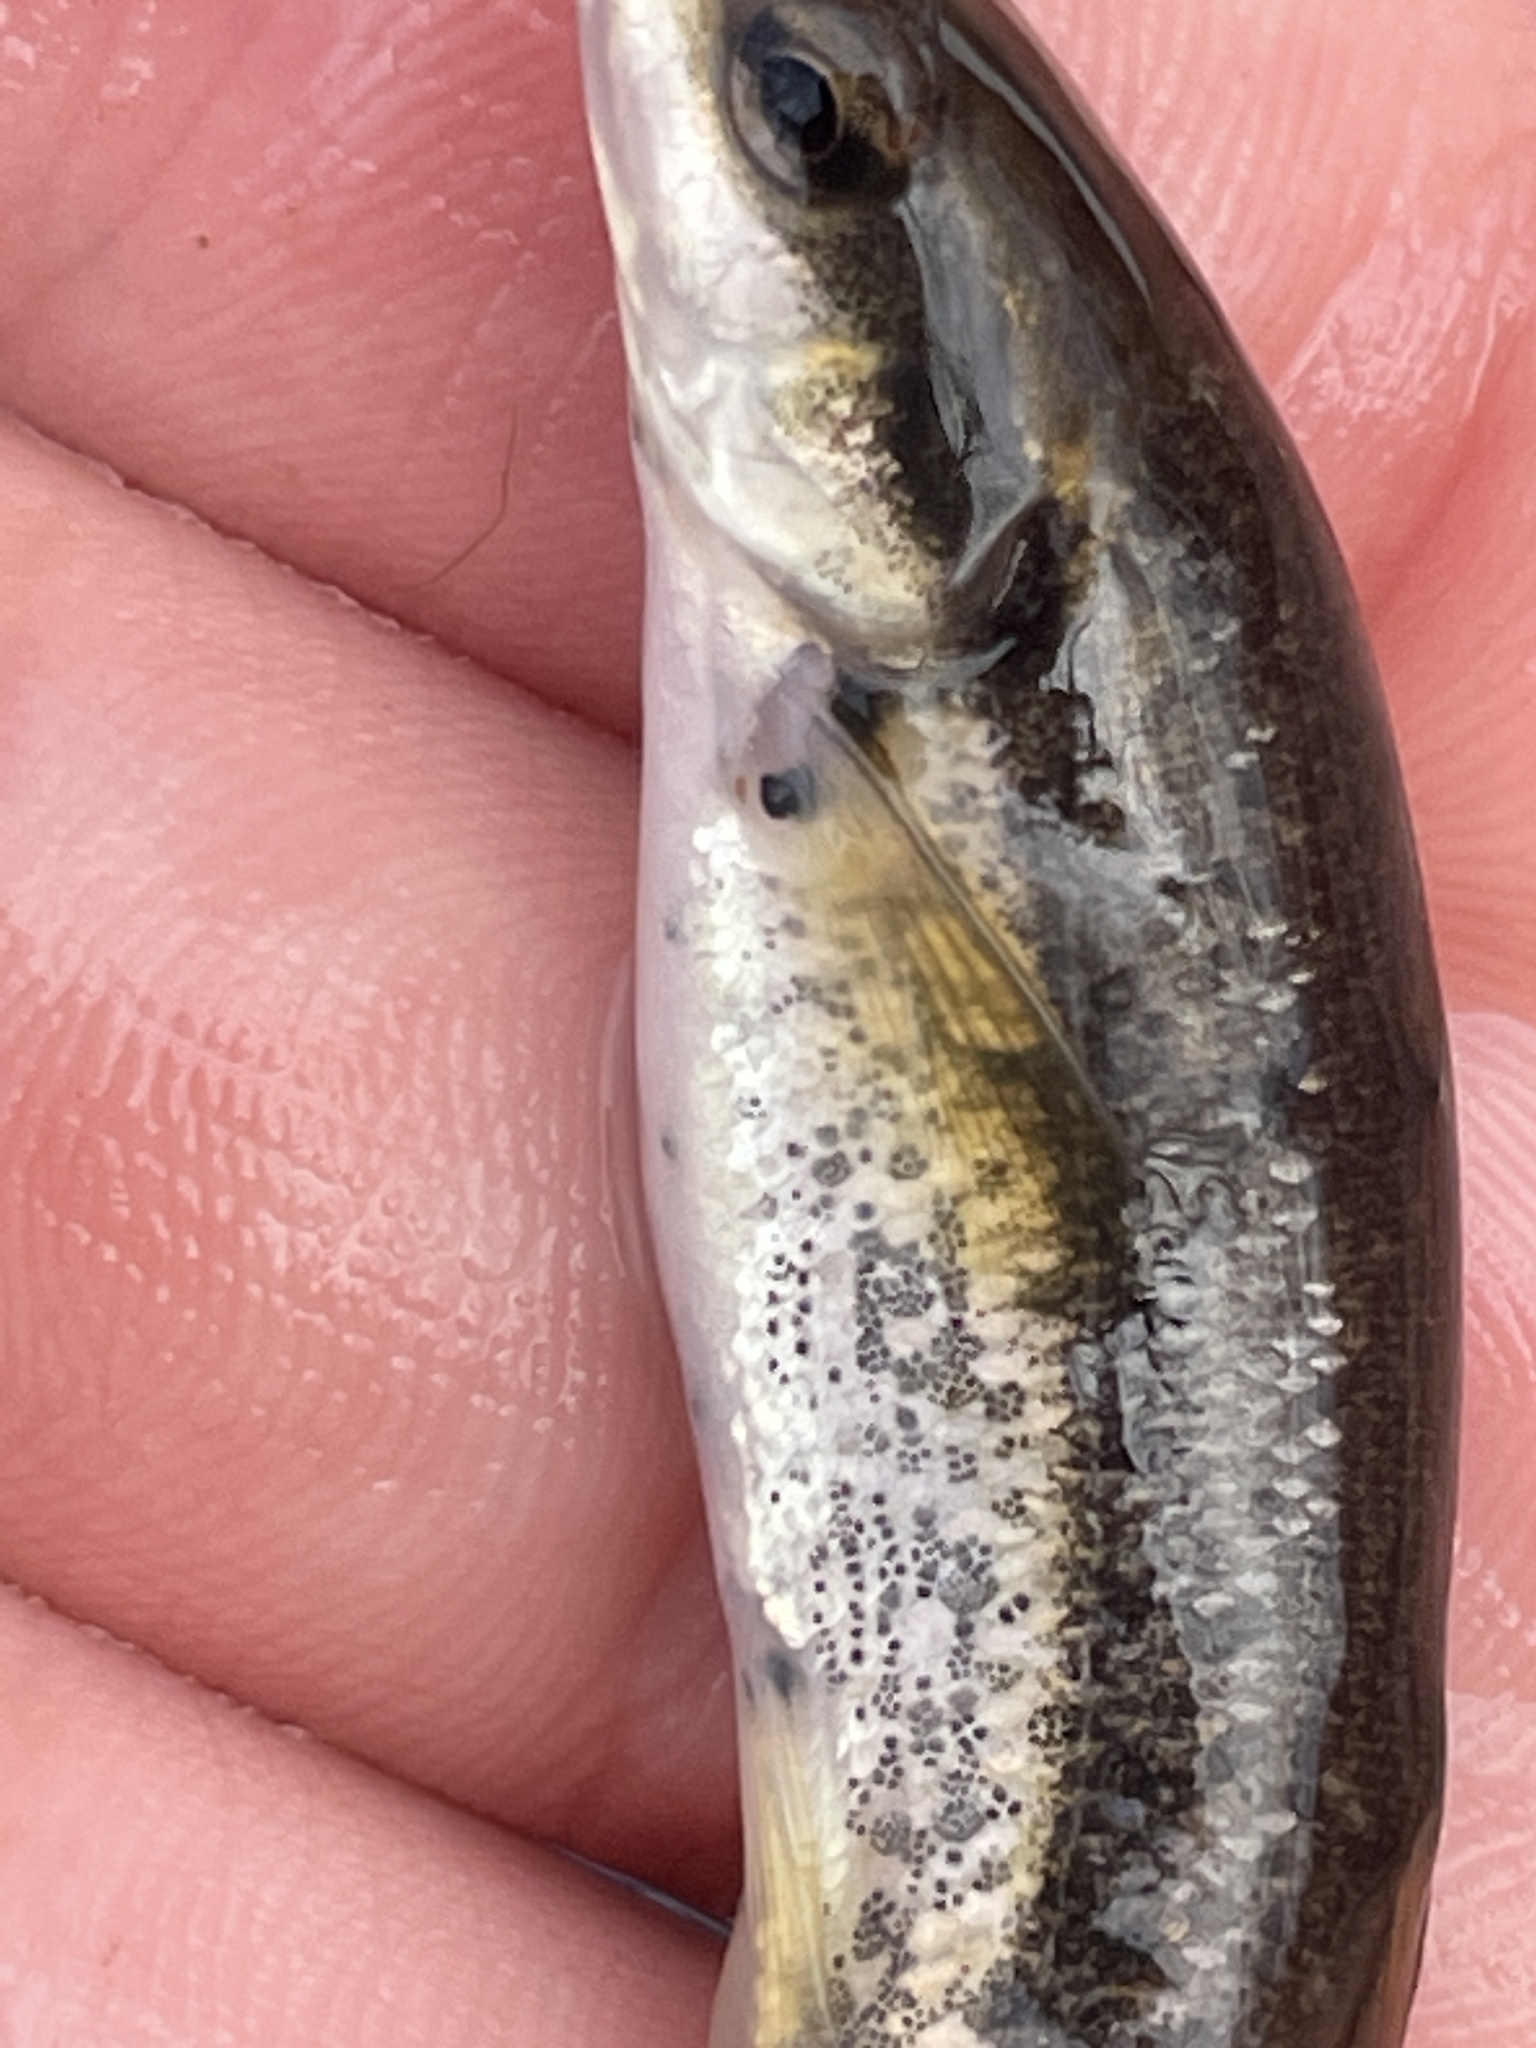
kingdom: Animalia
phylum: Platyhelminthes
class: Trematoda
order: Diplostomida
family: Diplostomidae
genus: Neascus
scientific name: Neascus
